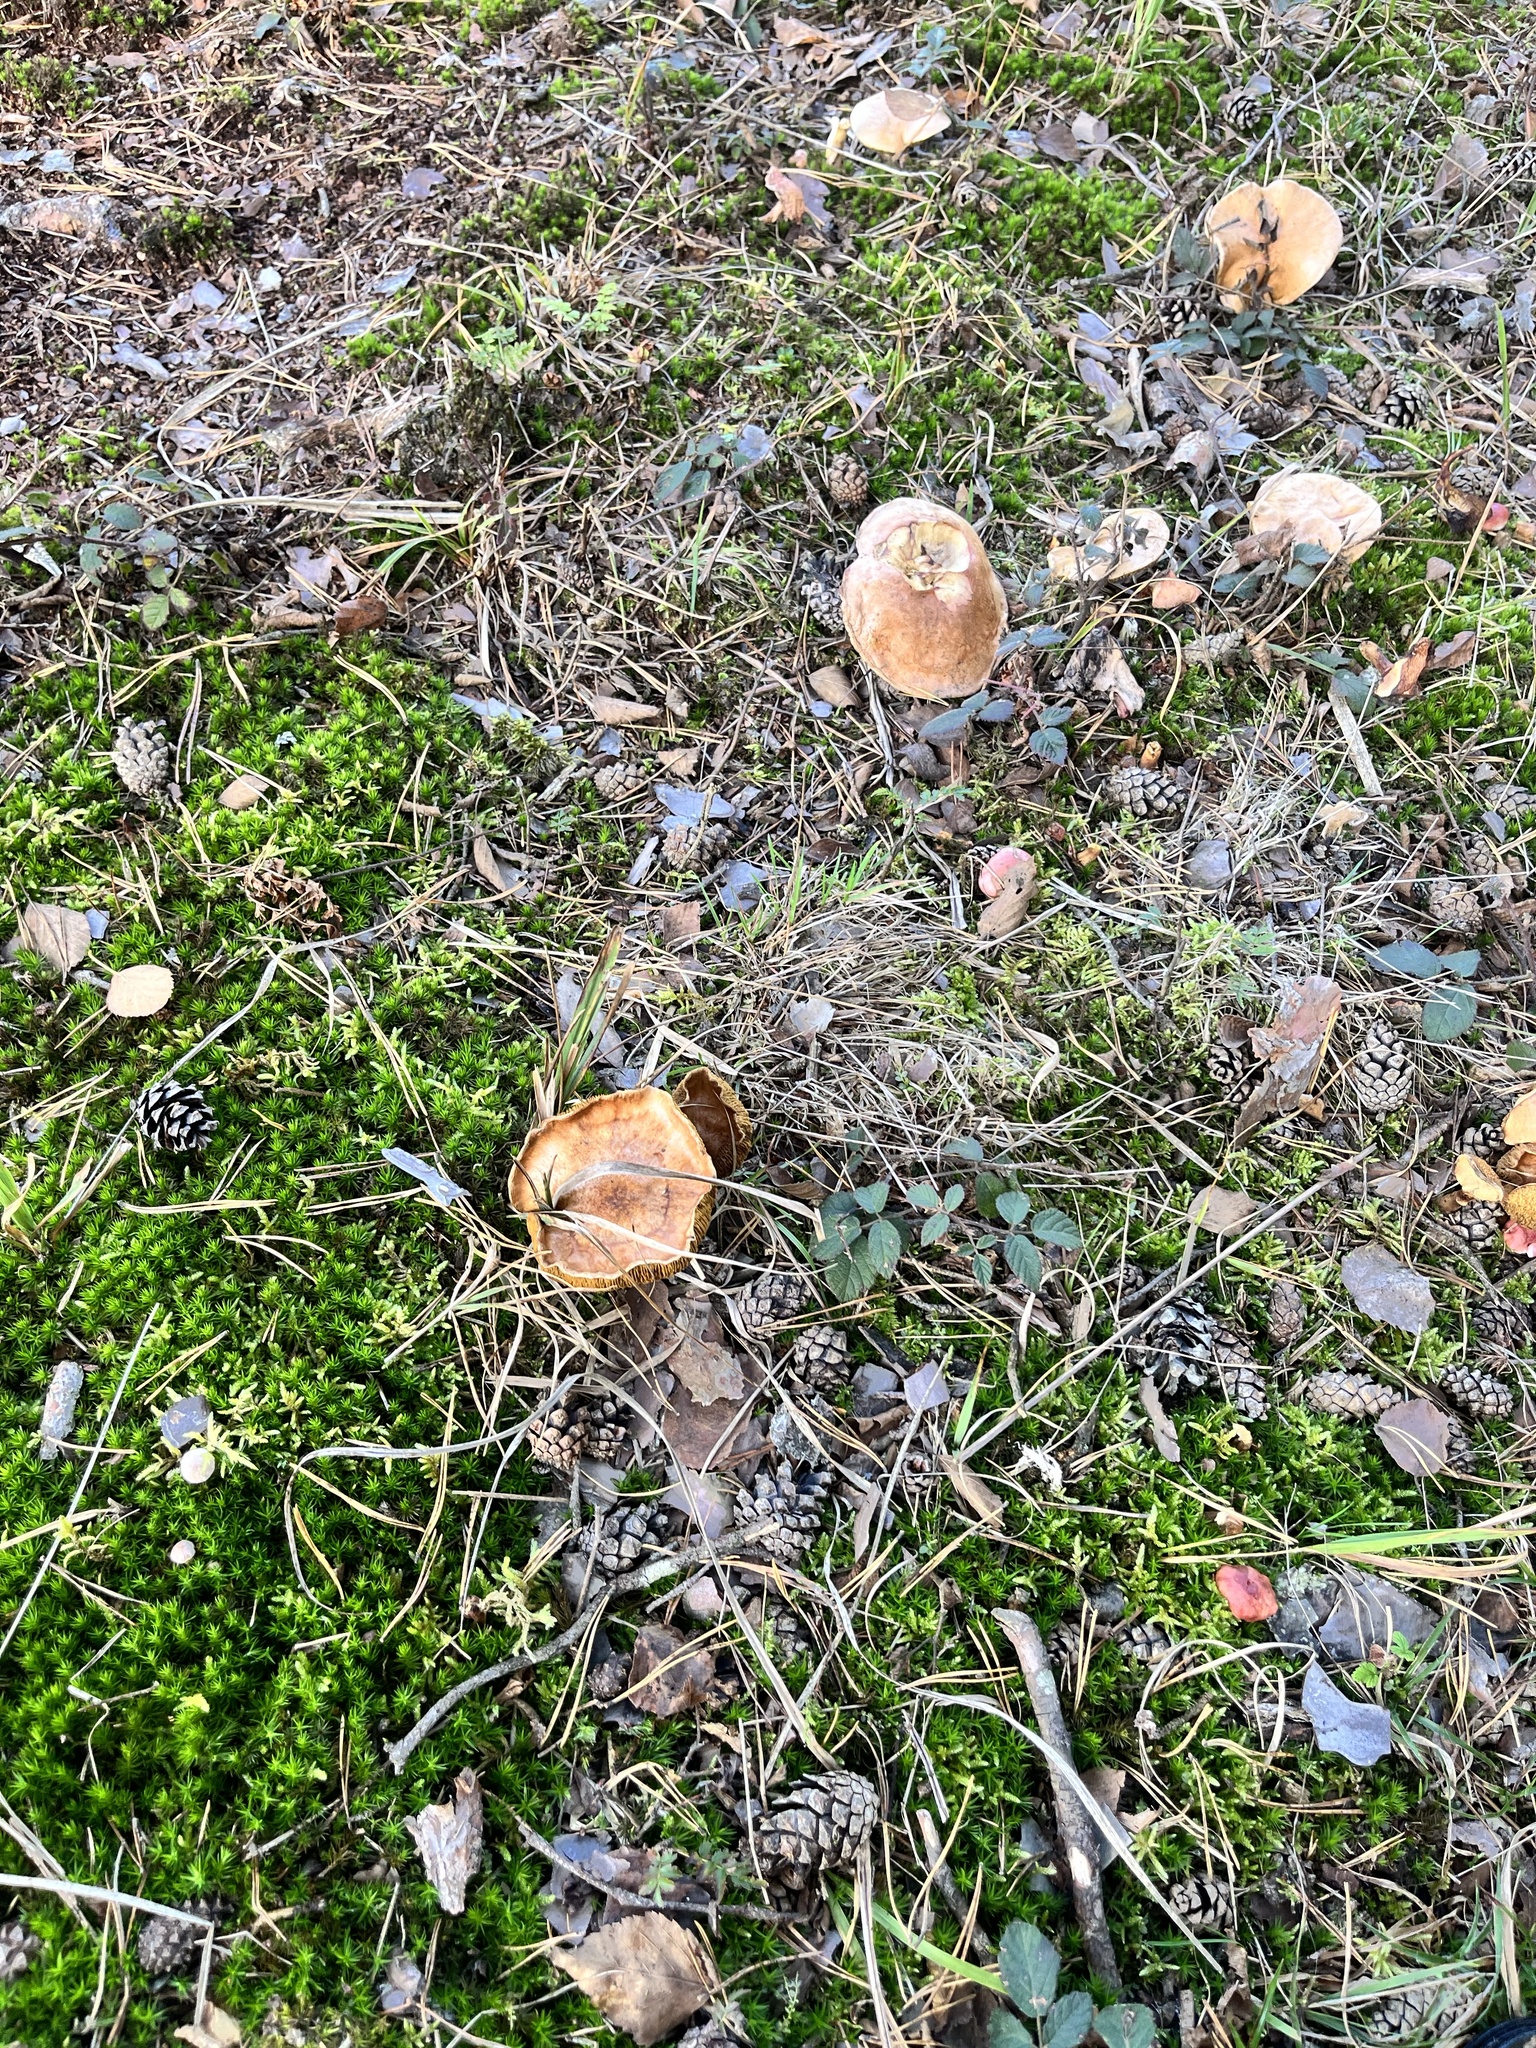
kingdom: Fungi
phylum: Basidiomycota
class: Agaricomycetes
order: Boletales
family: Boletaceae
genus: Chalciporus
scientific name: Chalciporus piperatus
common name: Peppery bolete
